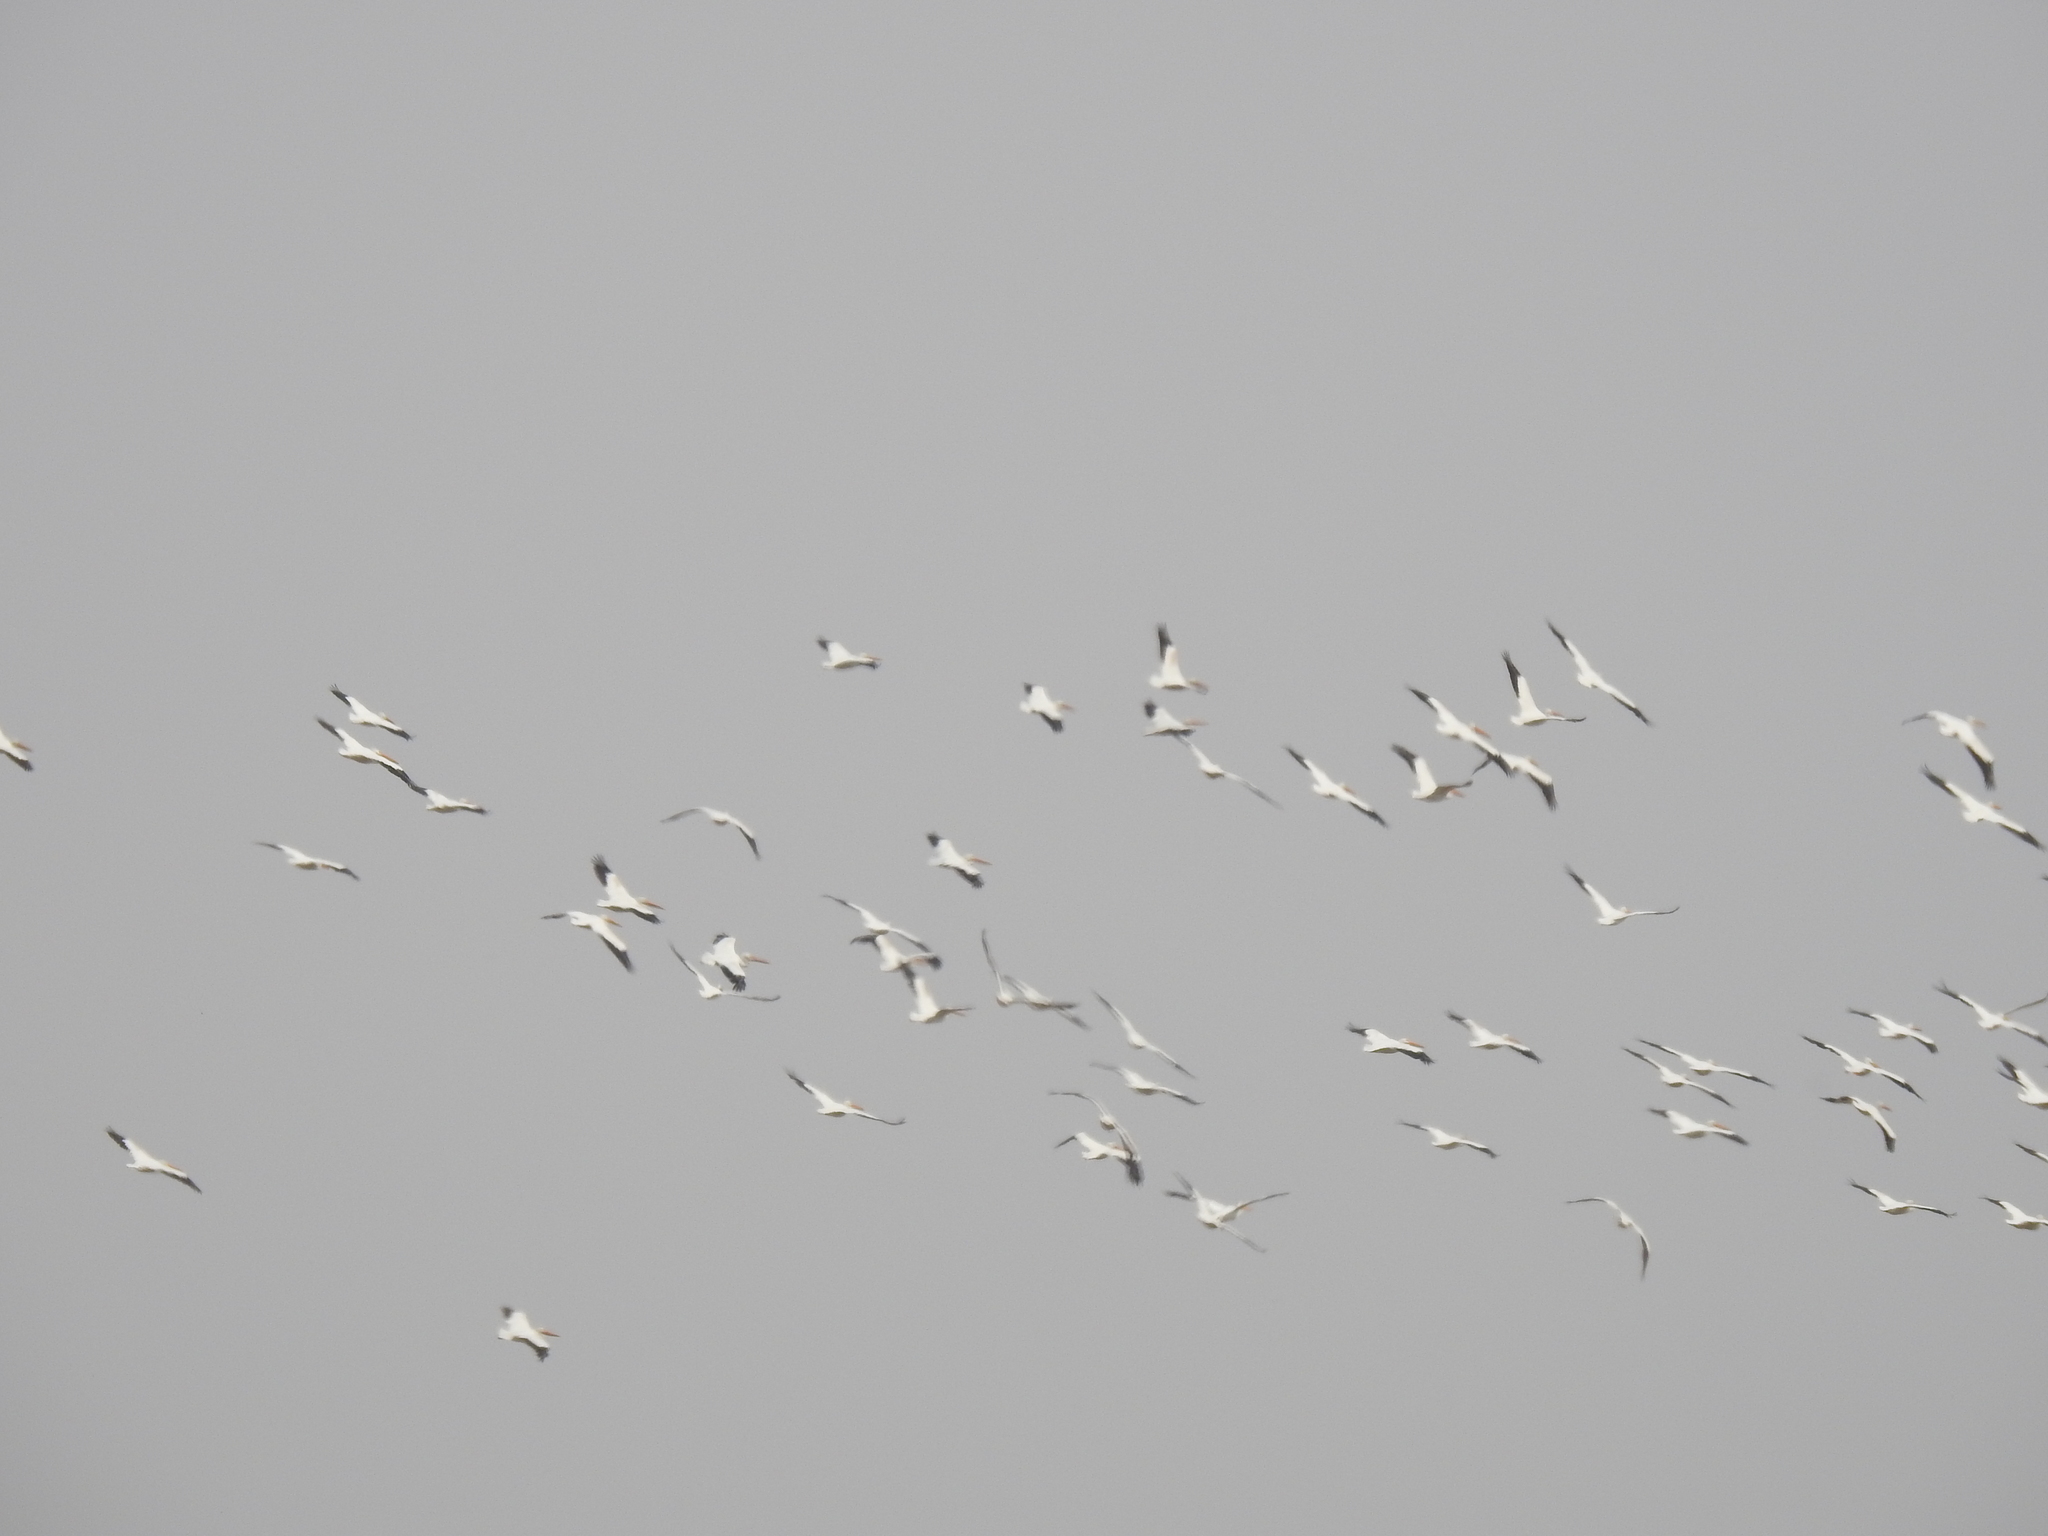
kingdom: Animalia
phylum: Chordata
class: Aves
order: Pelecaniformes
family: Pelecanidae
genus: Pelecanus
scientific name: Pelecanus erythrorhynchos
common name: American white pelican
